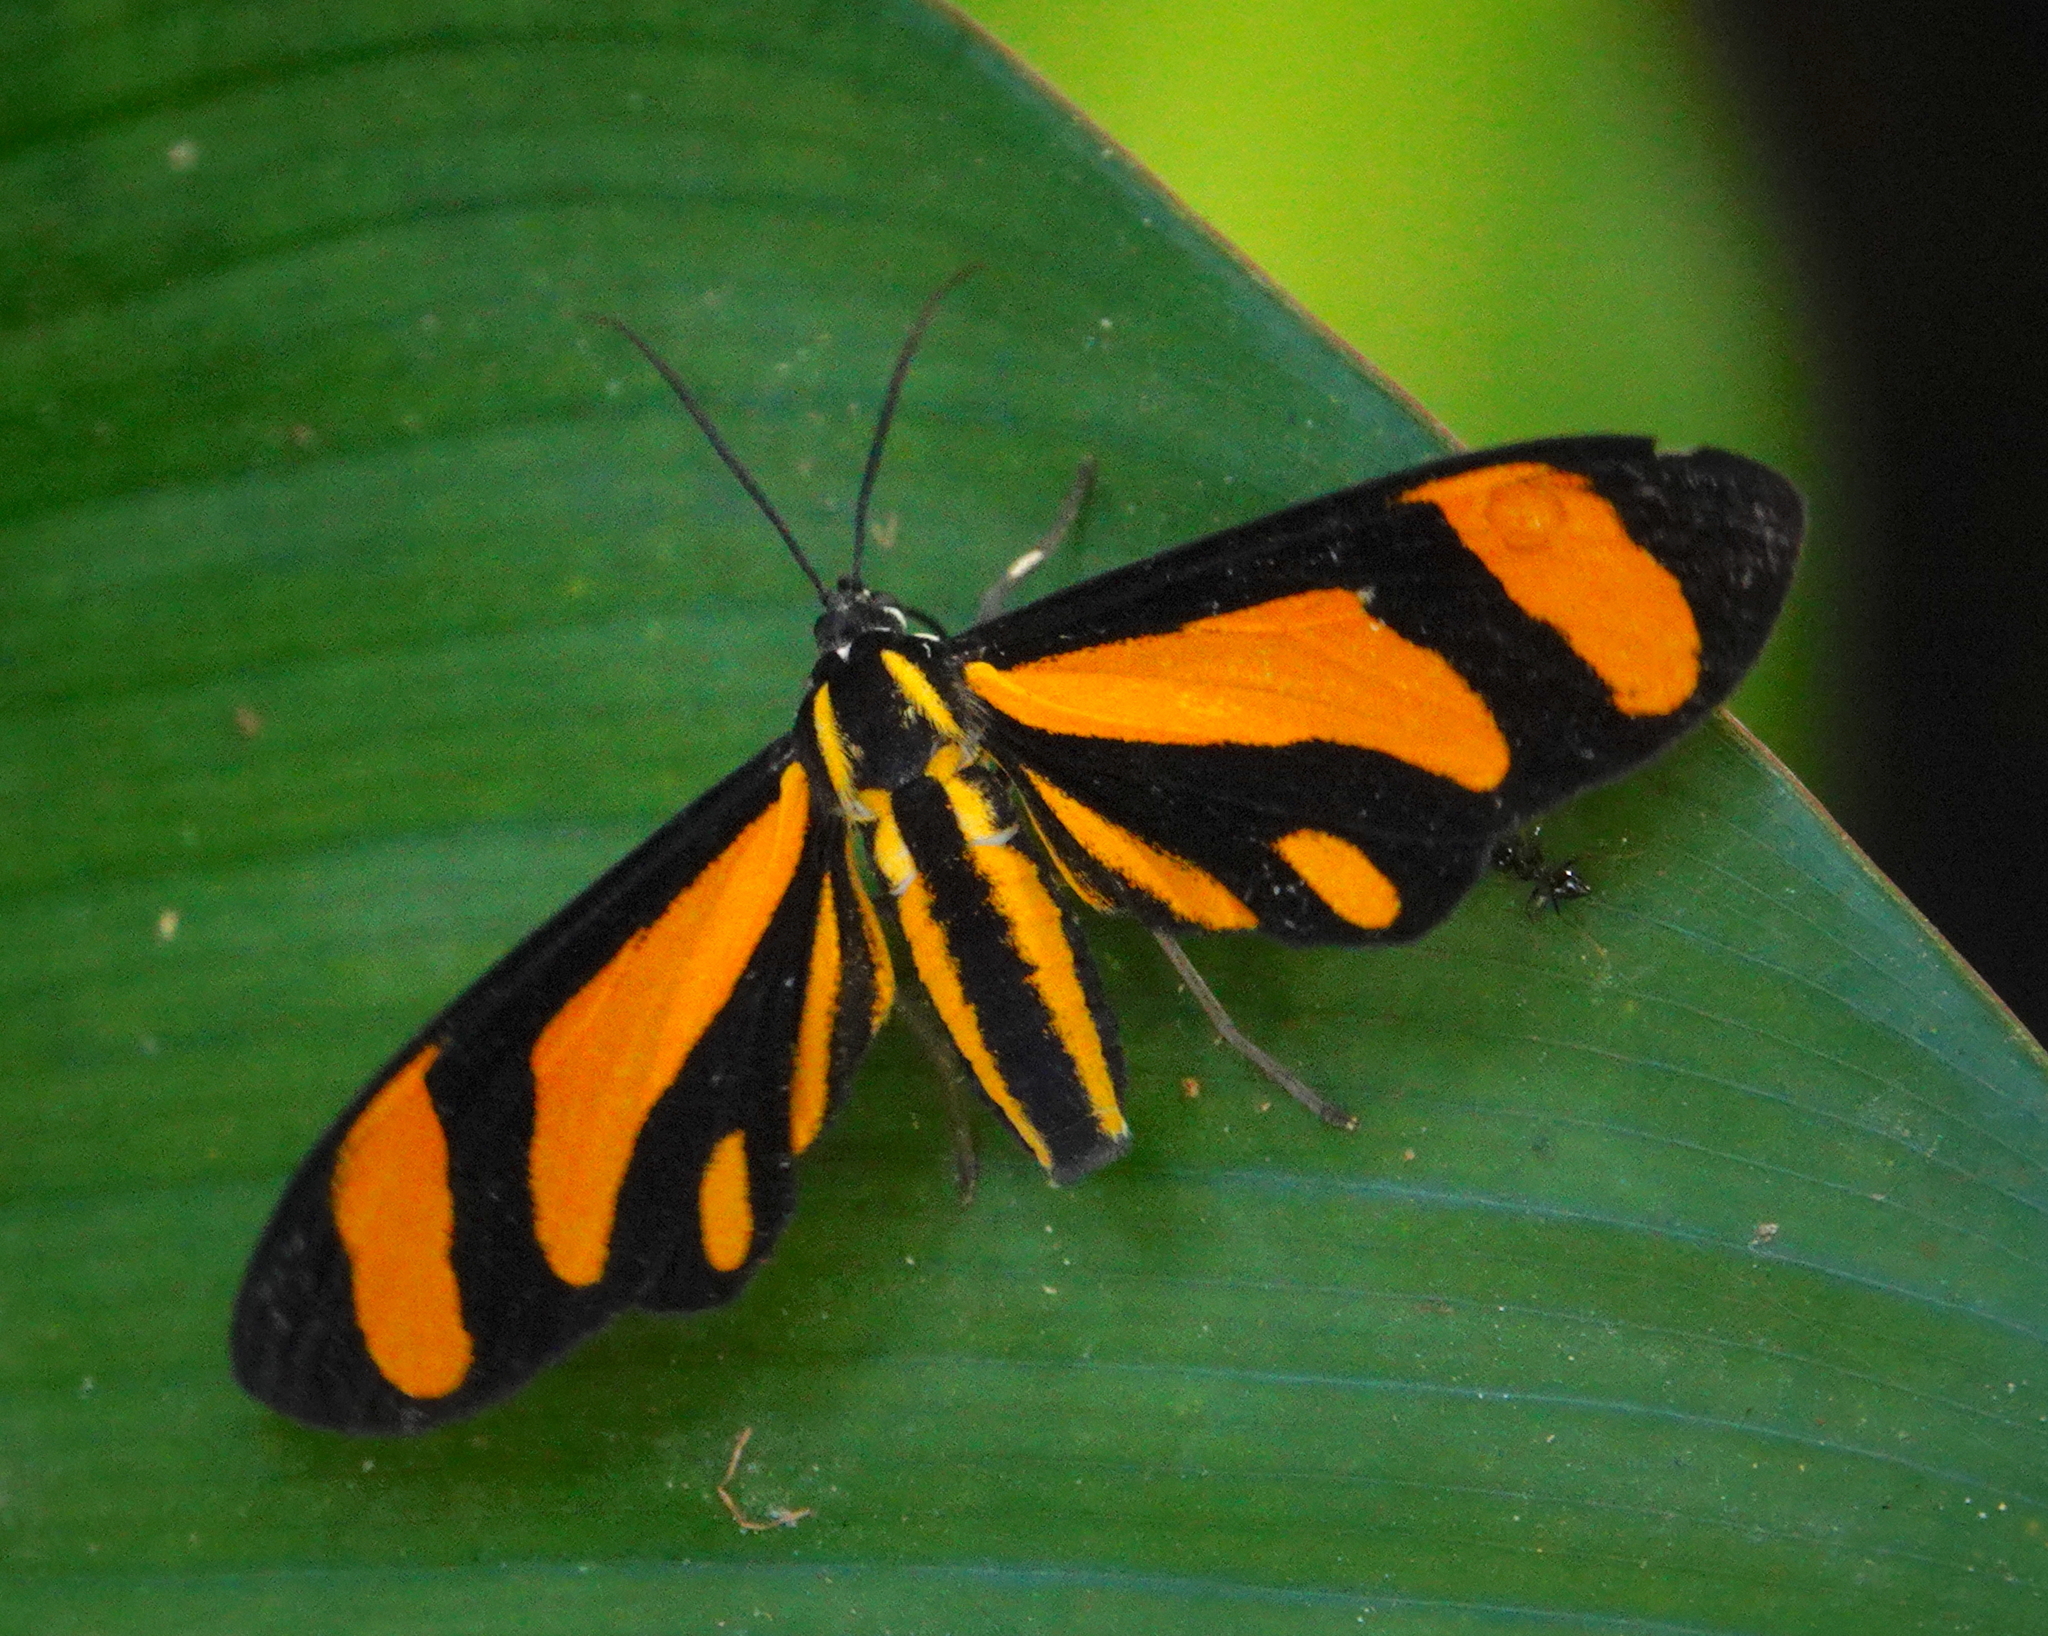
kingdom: Animalia
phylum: Arthropoda
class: Insecta
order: Lepidoptera
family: Erebidae
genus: Uranophora
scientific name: Uranophora alterata
